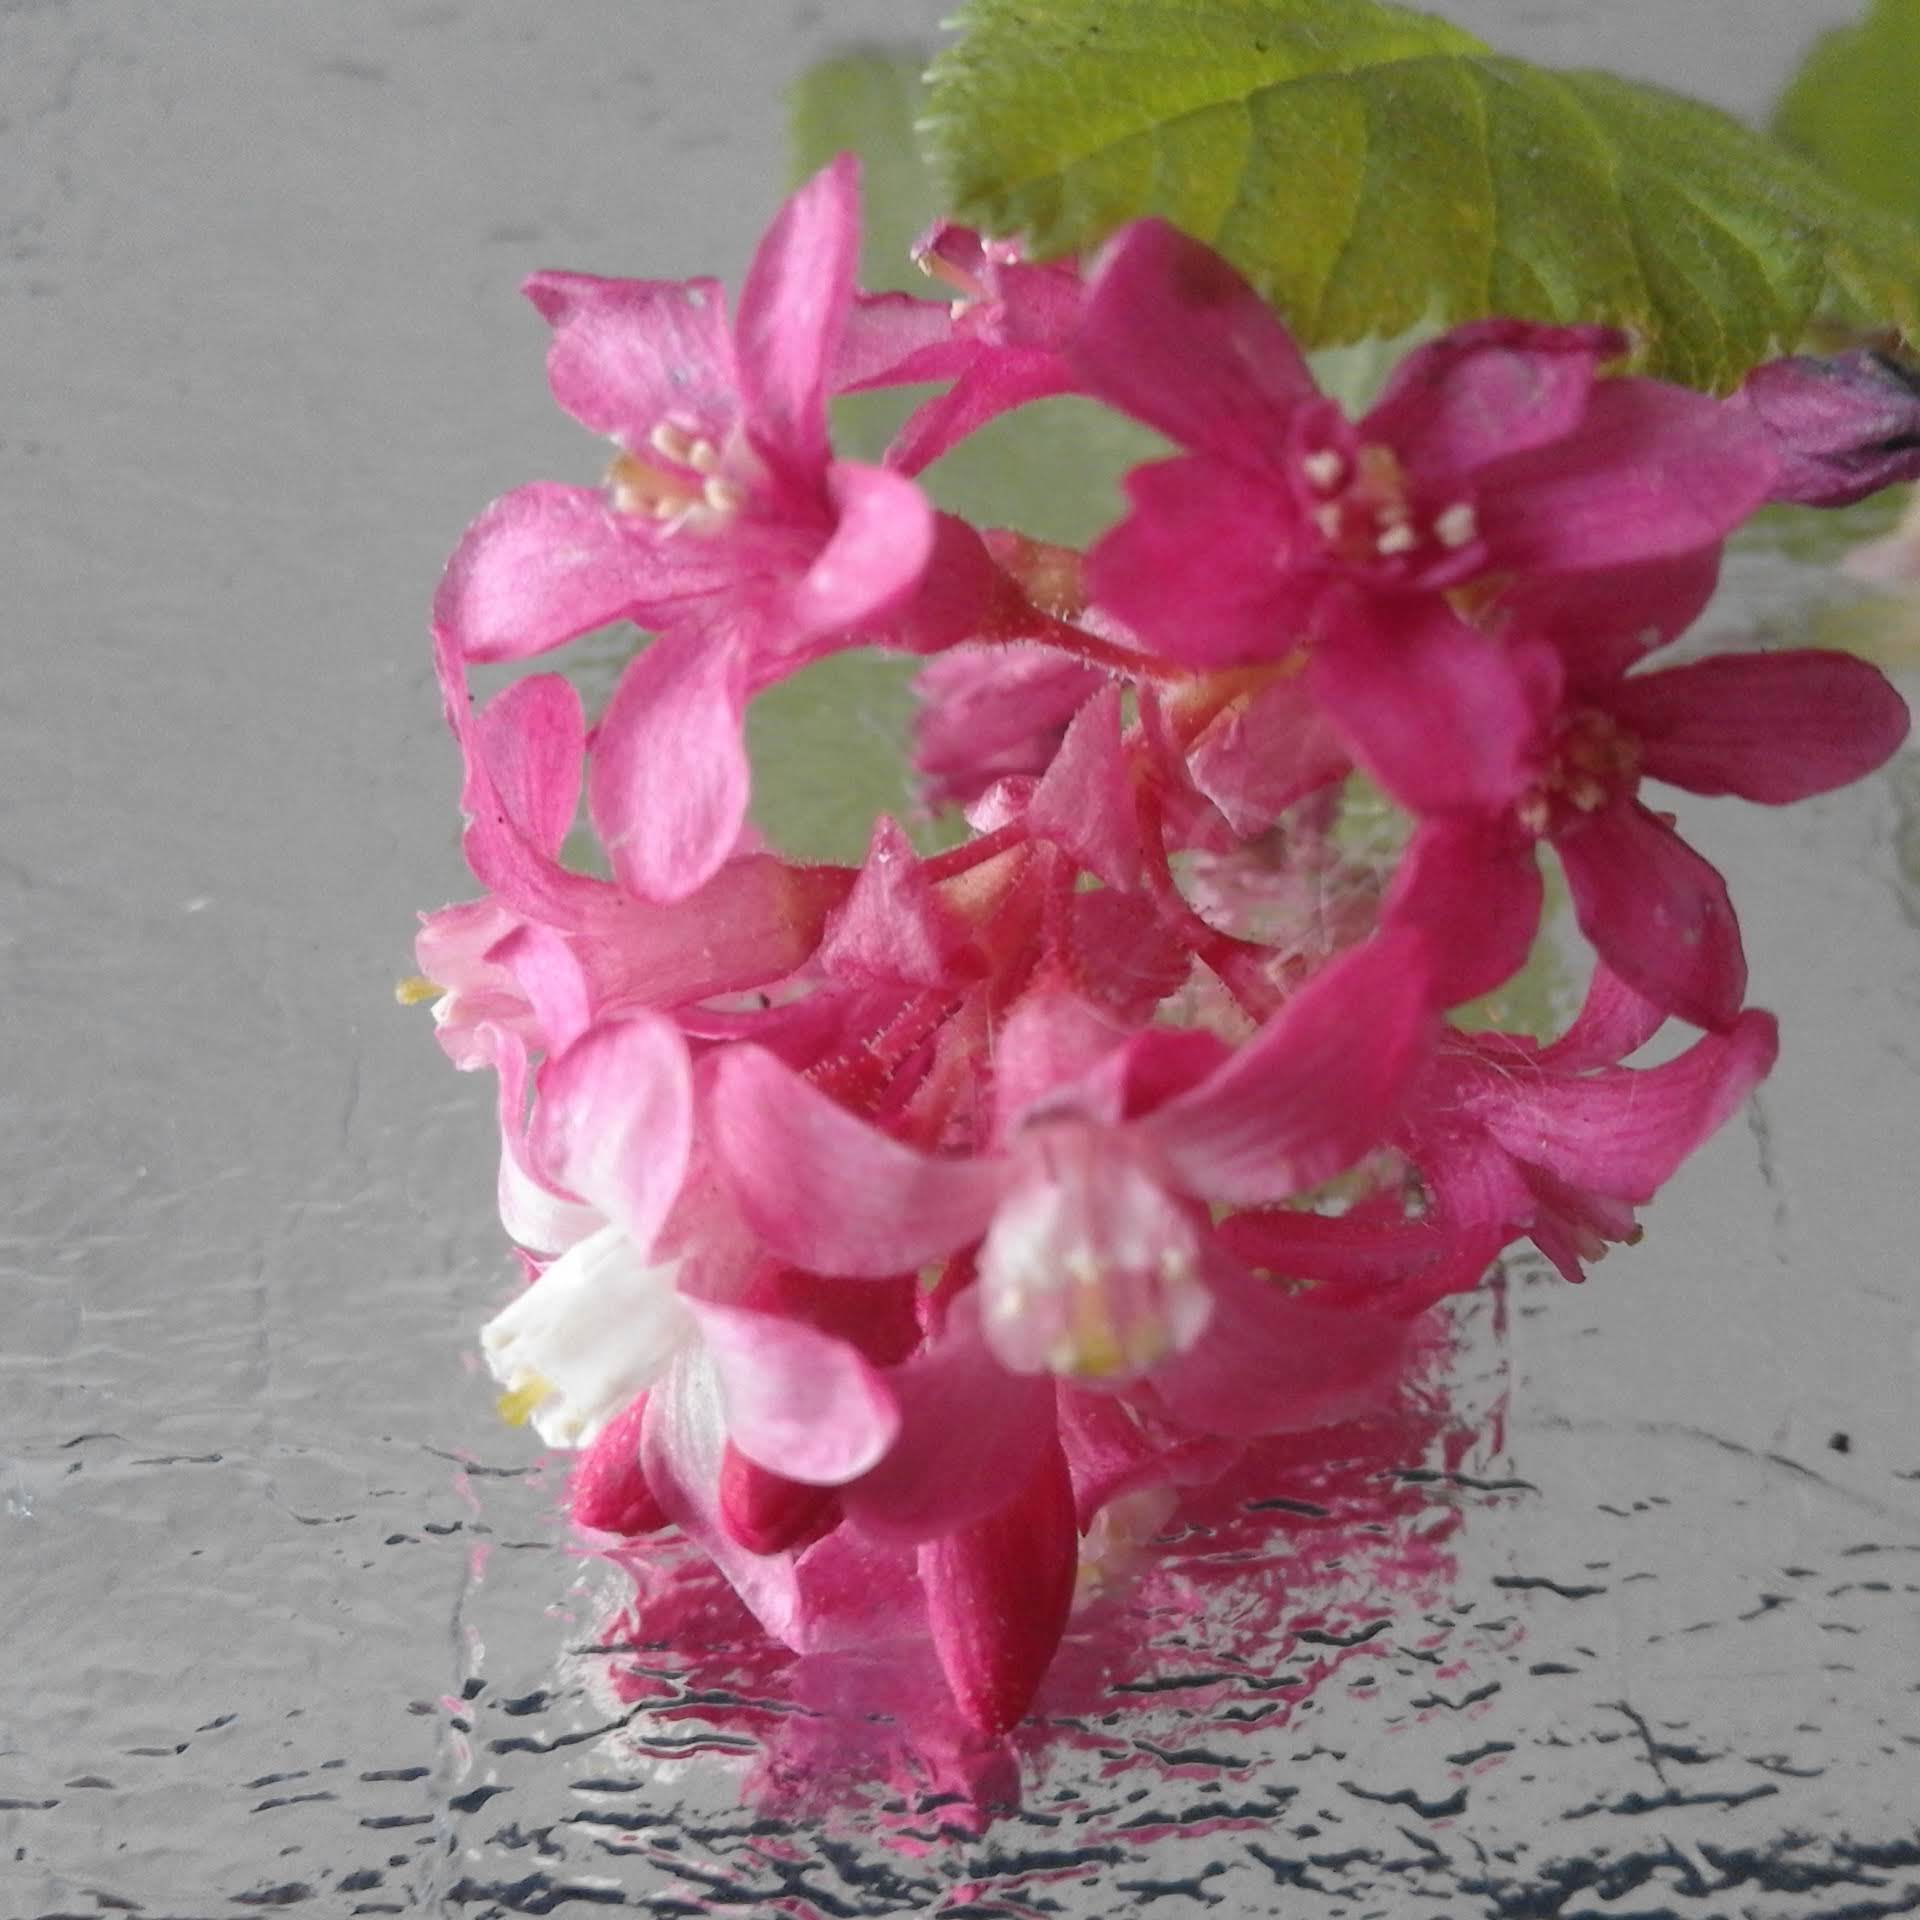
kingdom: Plantae
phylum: Tracheophyta
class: Magnoliopsida
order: Saxifragales
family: Grossulariaceae
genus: Ribes
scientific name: Ribes sanguineum
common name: Flowering currant
